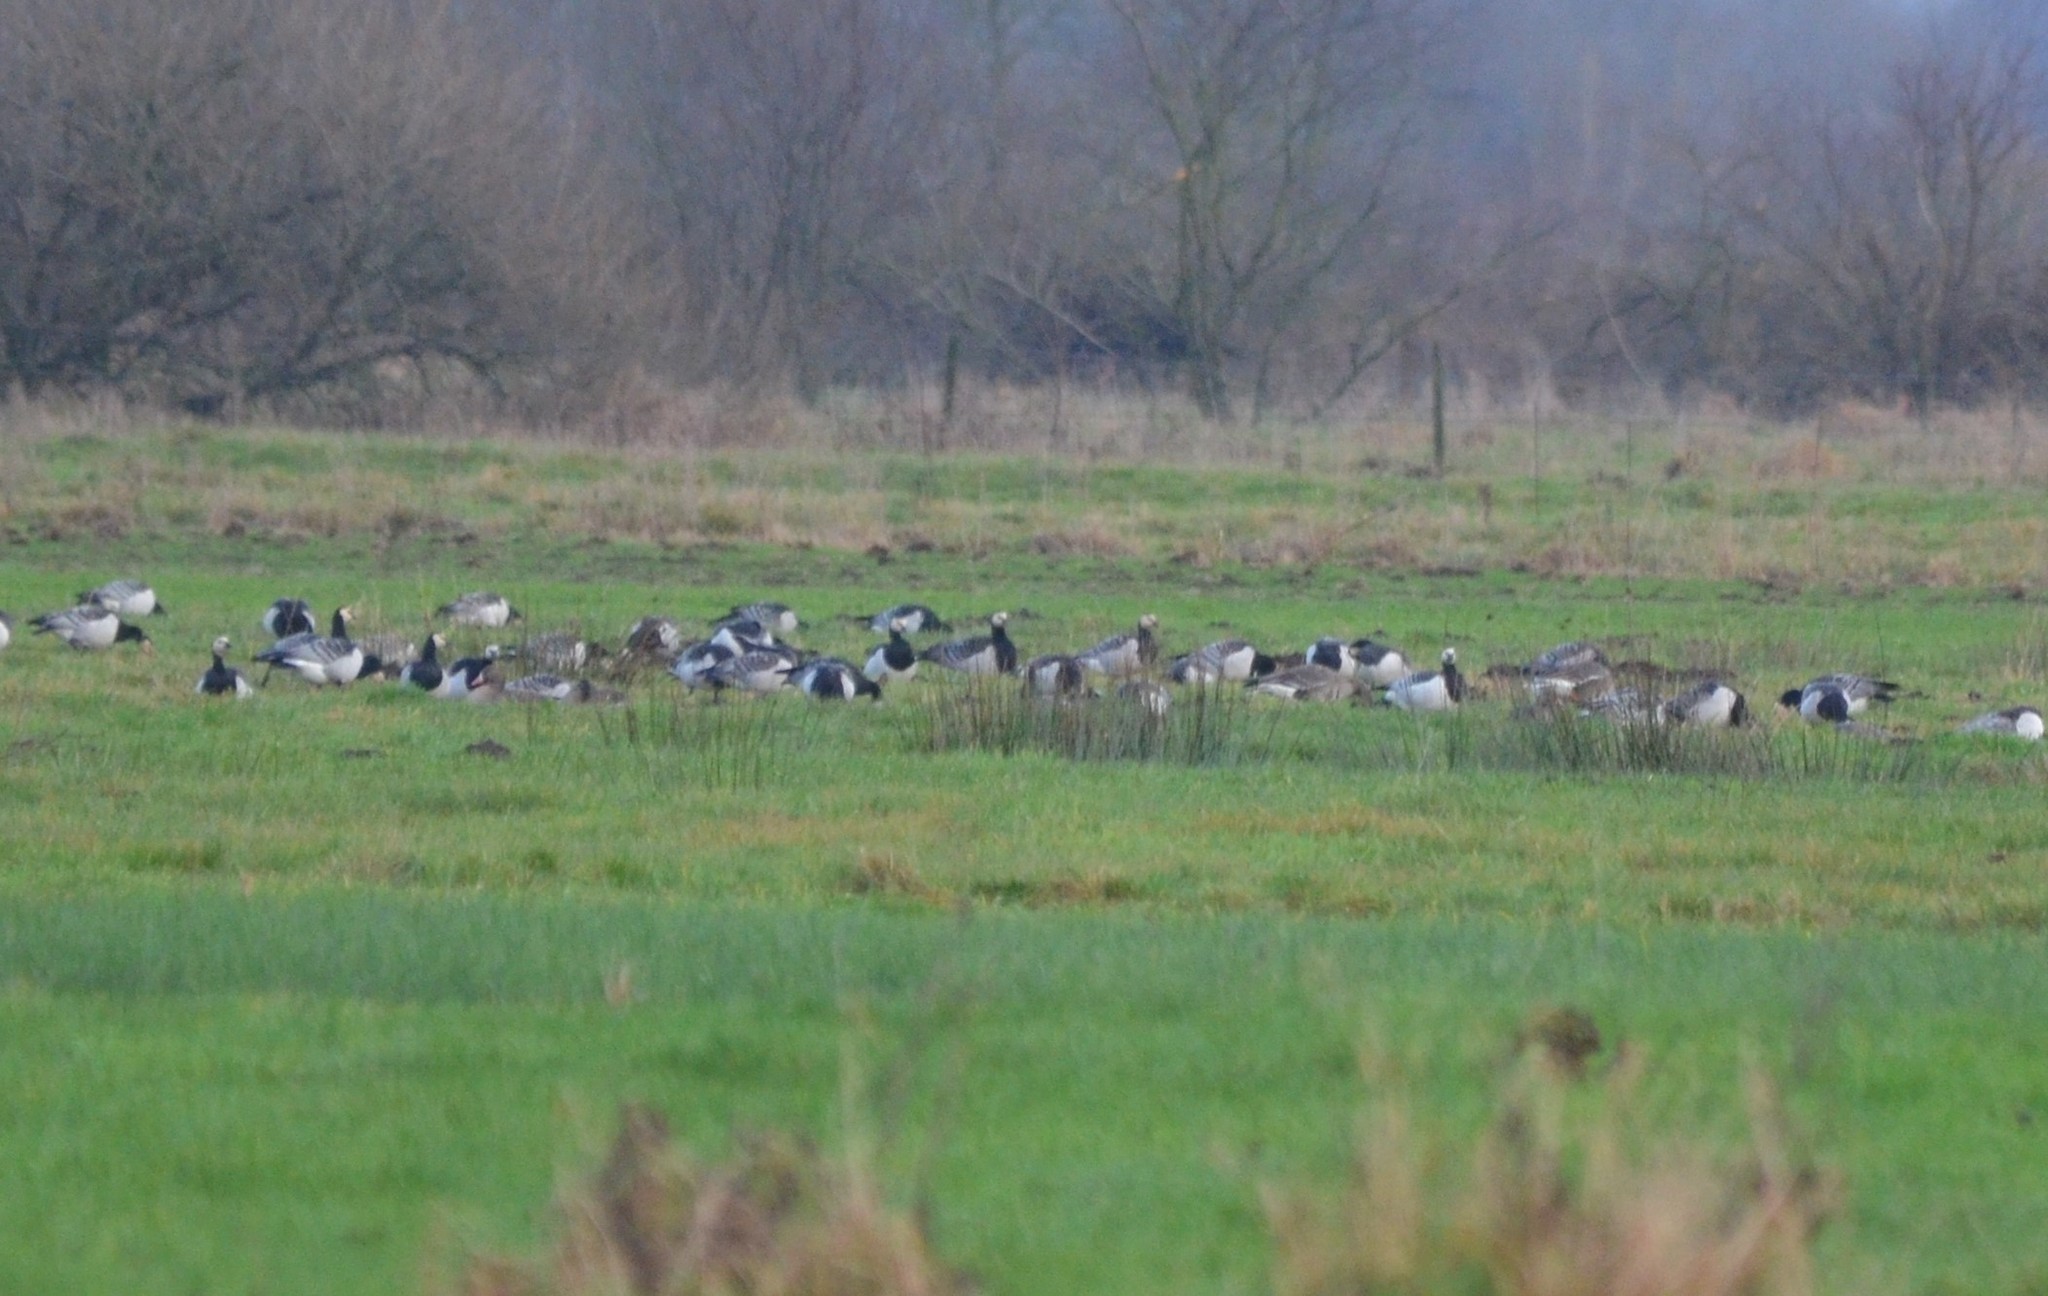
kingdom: Animalia
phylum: Chordata
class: Aves
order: Anseriformes
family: Anatidae
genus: Branta
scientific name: Branta leucopsis
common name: Barnacle goose
